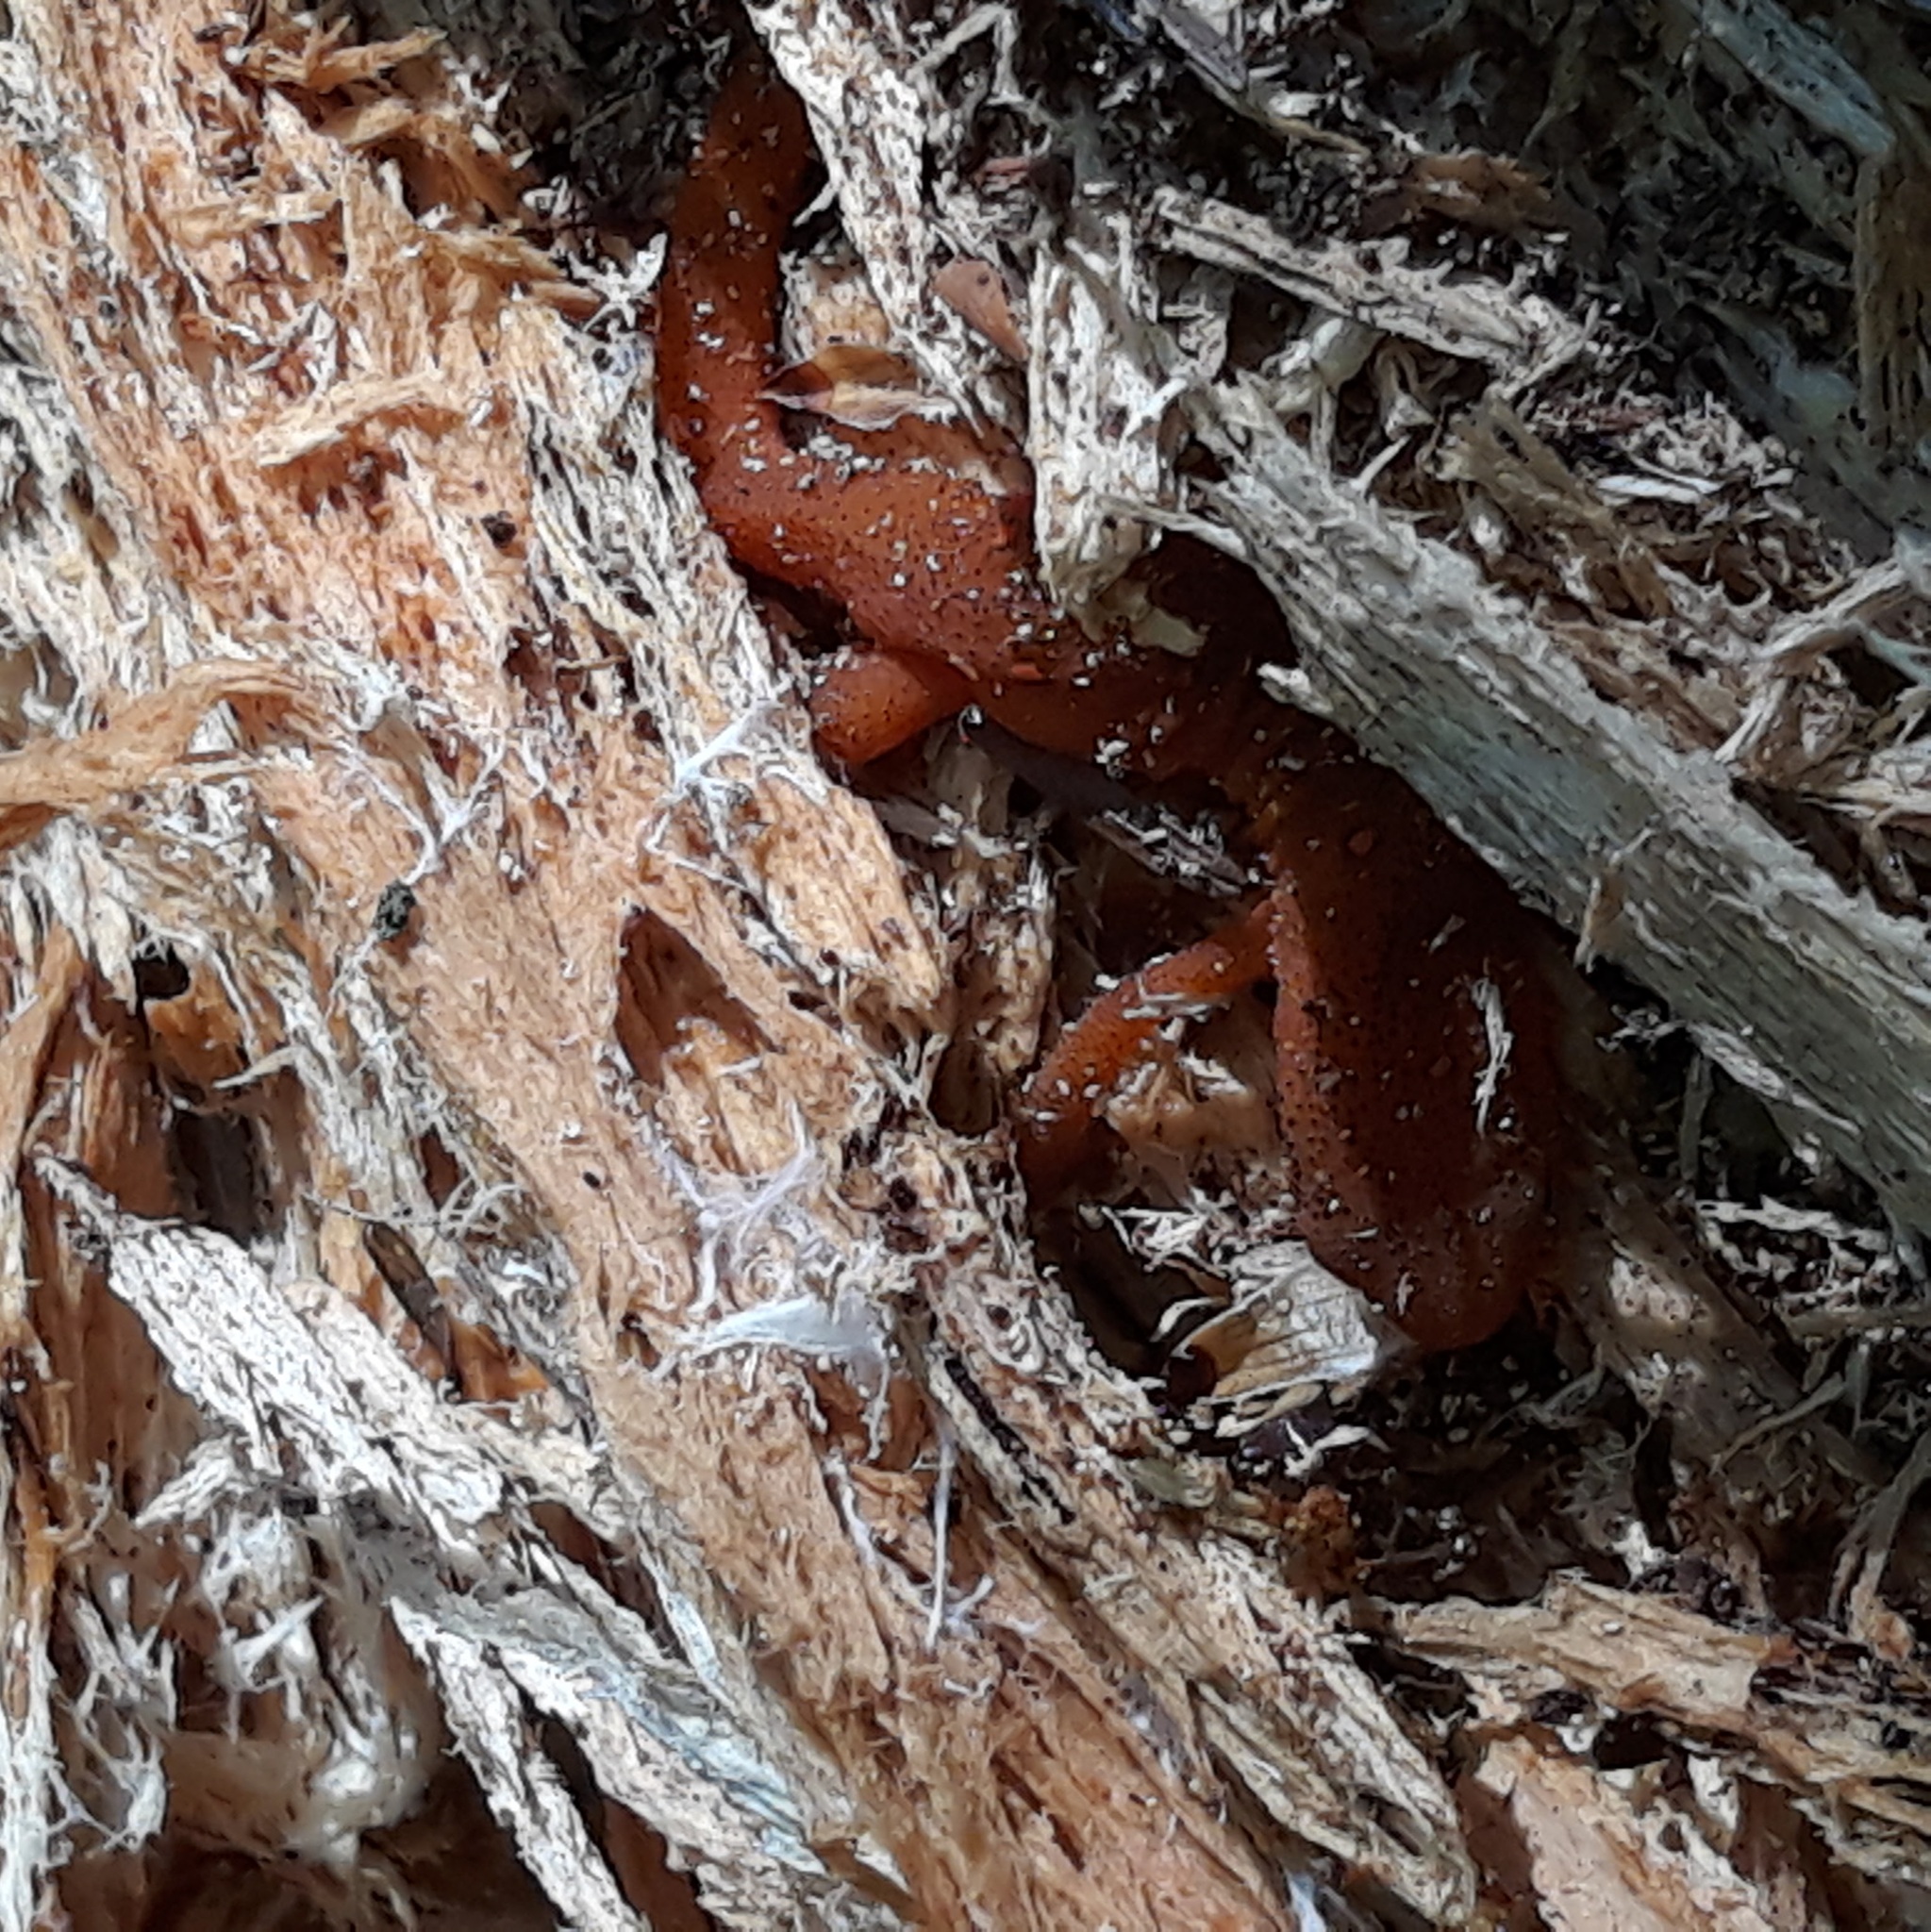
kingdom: Animalia
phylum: Chordata
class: Amphibia
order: Caudata
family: Salamandridae
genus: Notophthalmus
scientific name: Notophthalmus viridescens
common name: Eastern newt
